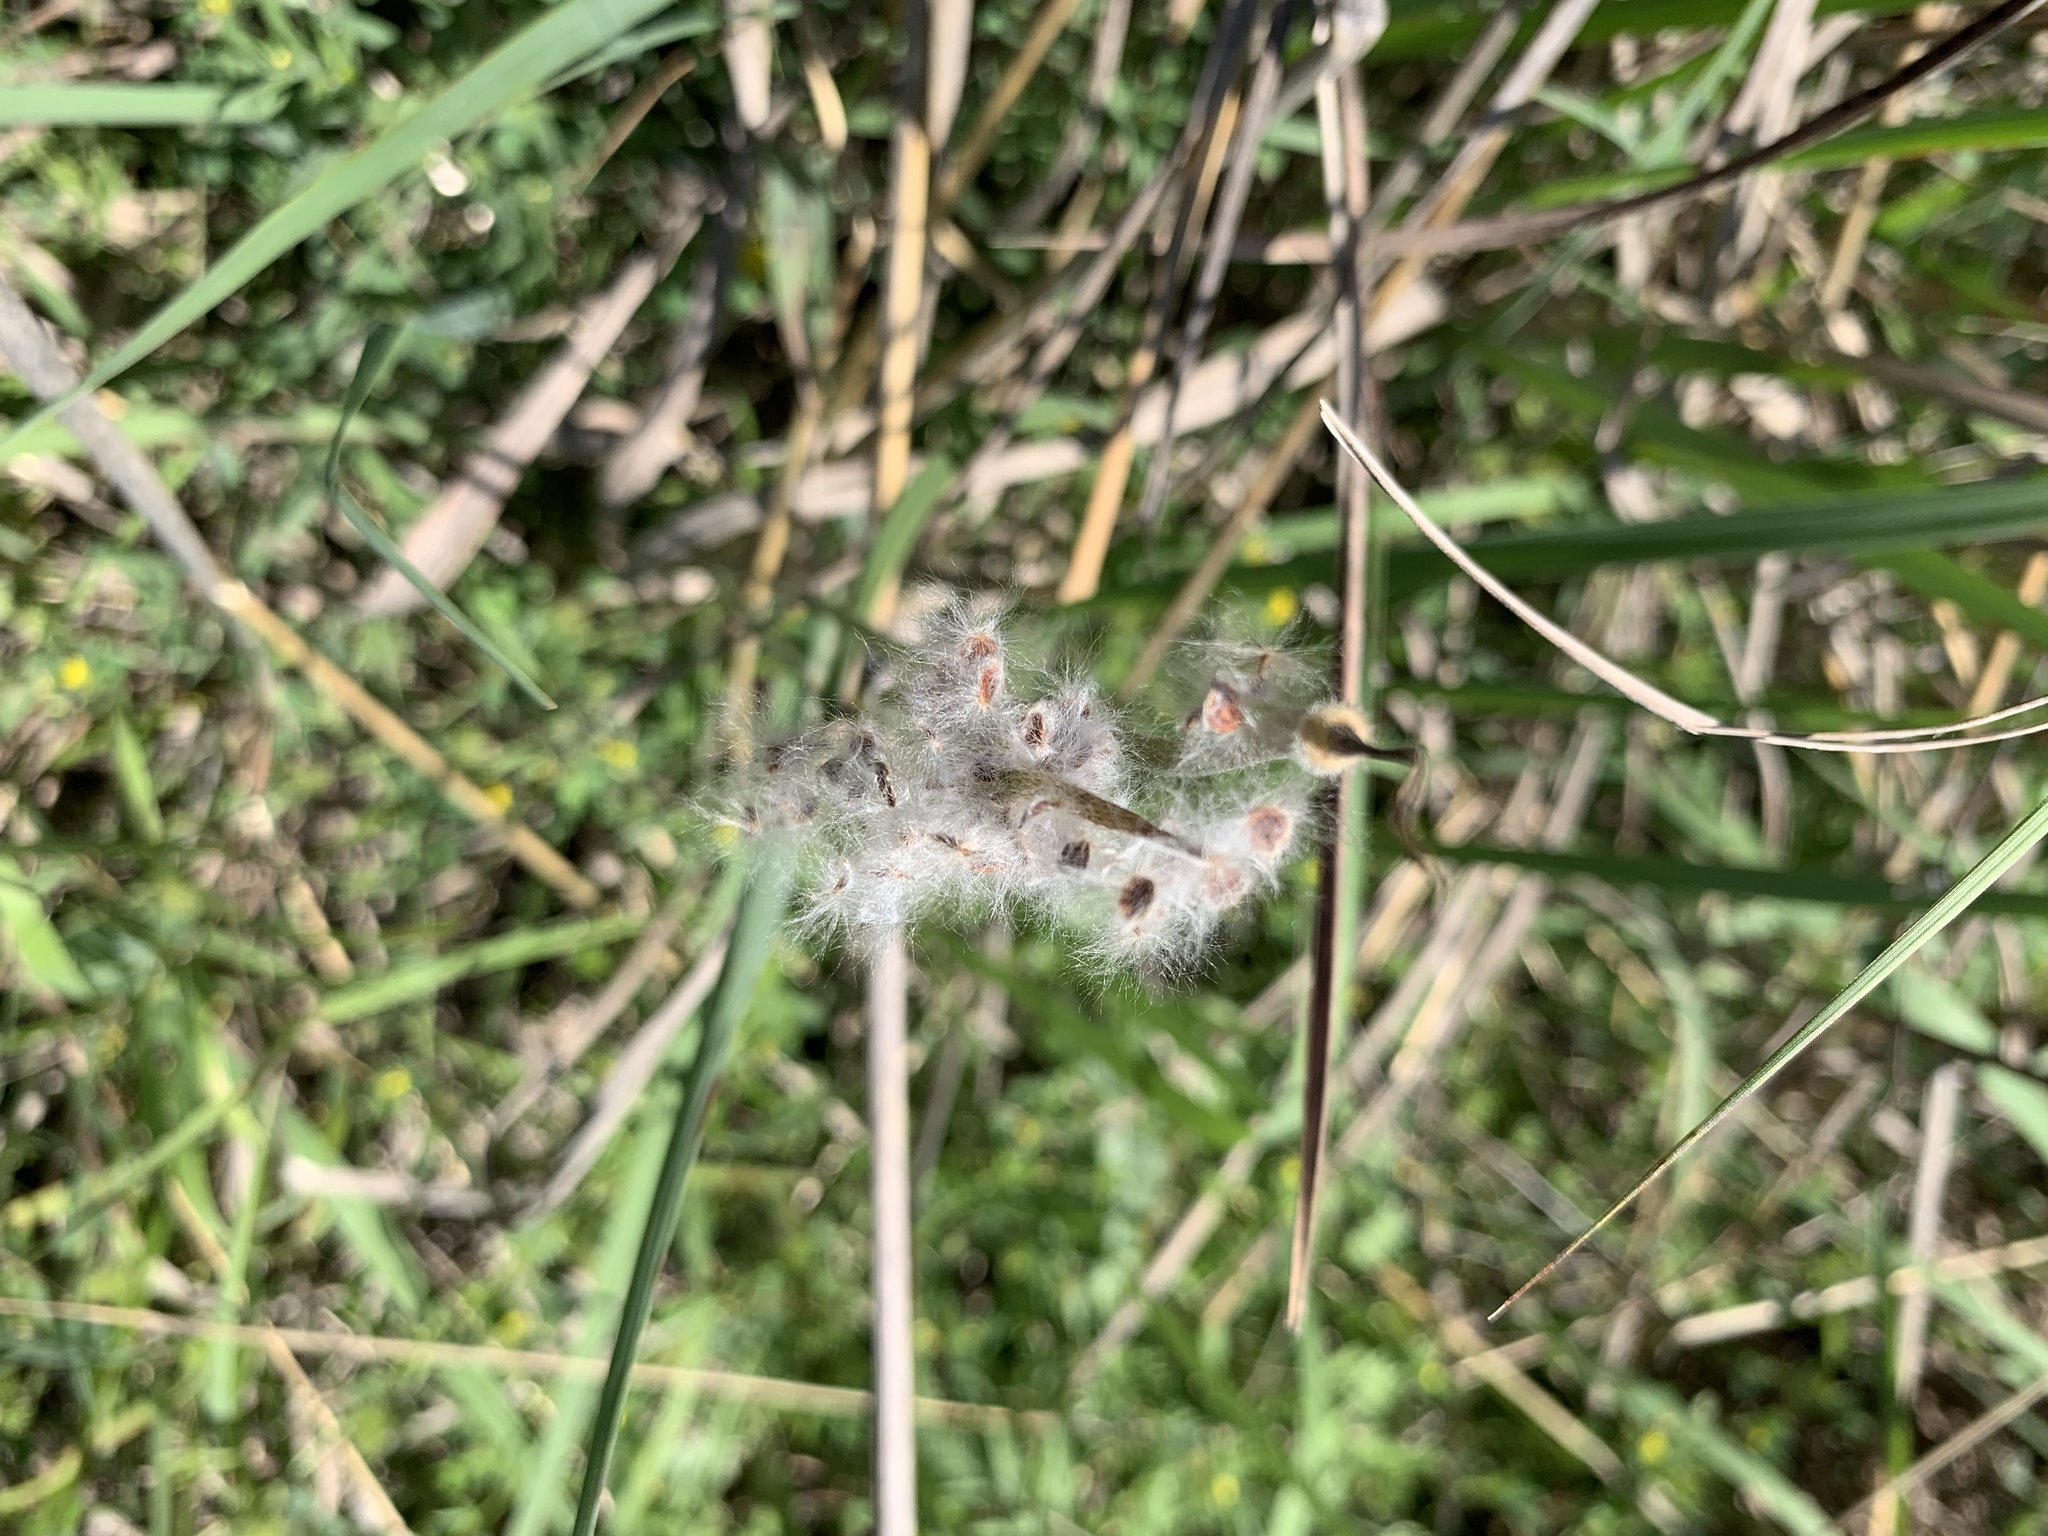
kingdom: Plantae
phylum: Tracheophyta
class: Magnoliopsida
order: Ranunculales
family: Ranunculaceae
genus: Anemone
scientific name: Anemone berlandieri
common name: Ten-petal anemone
